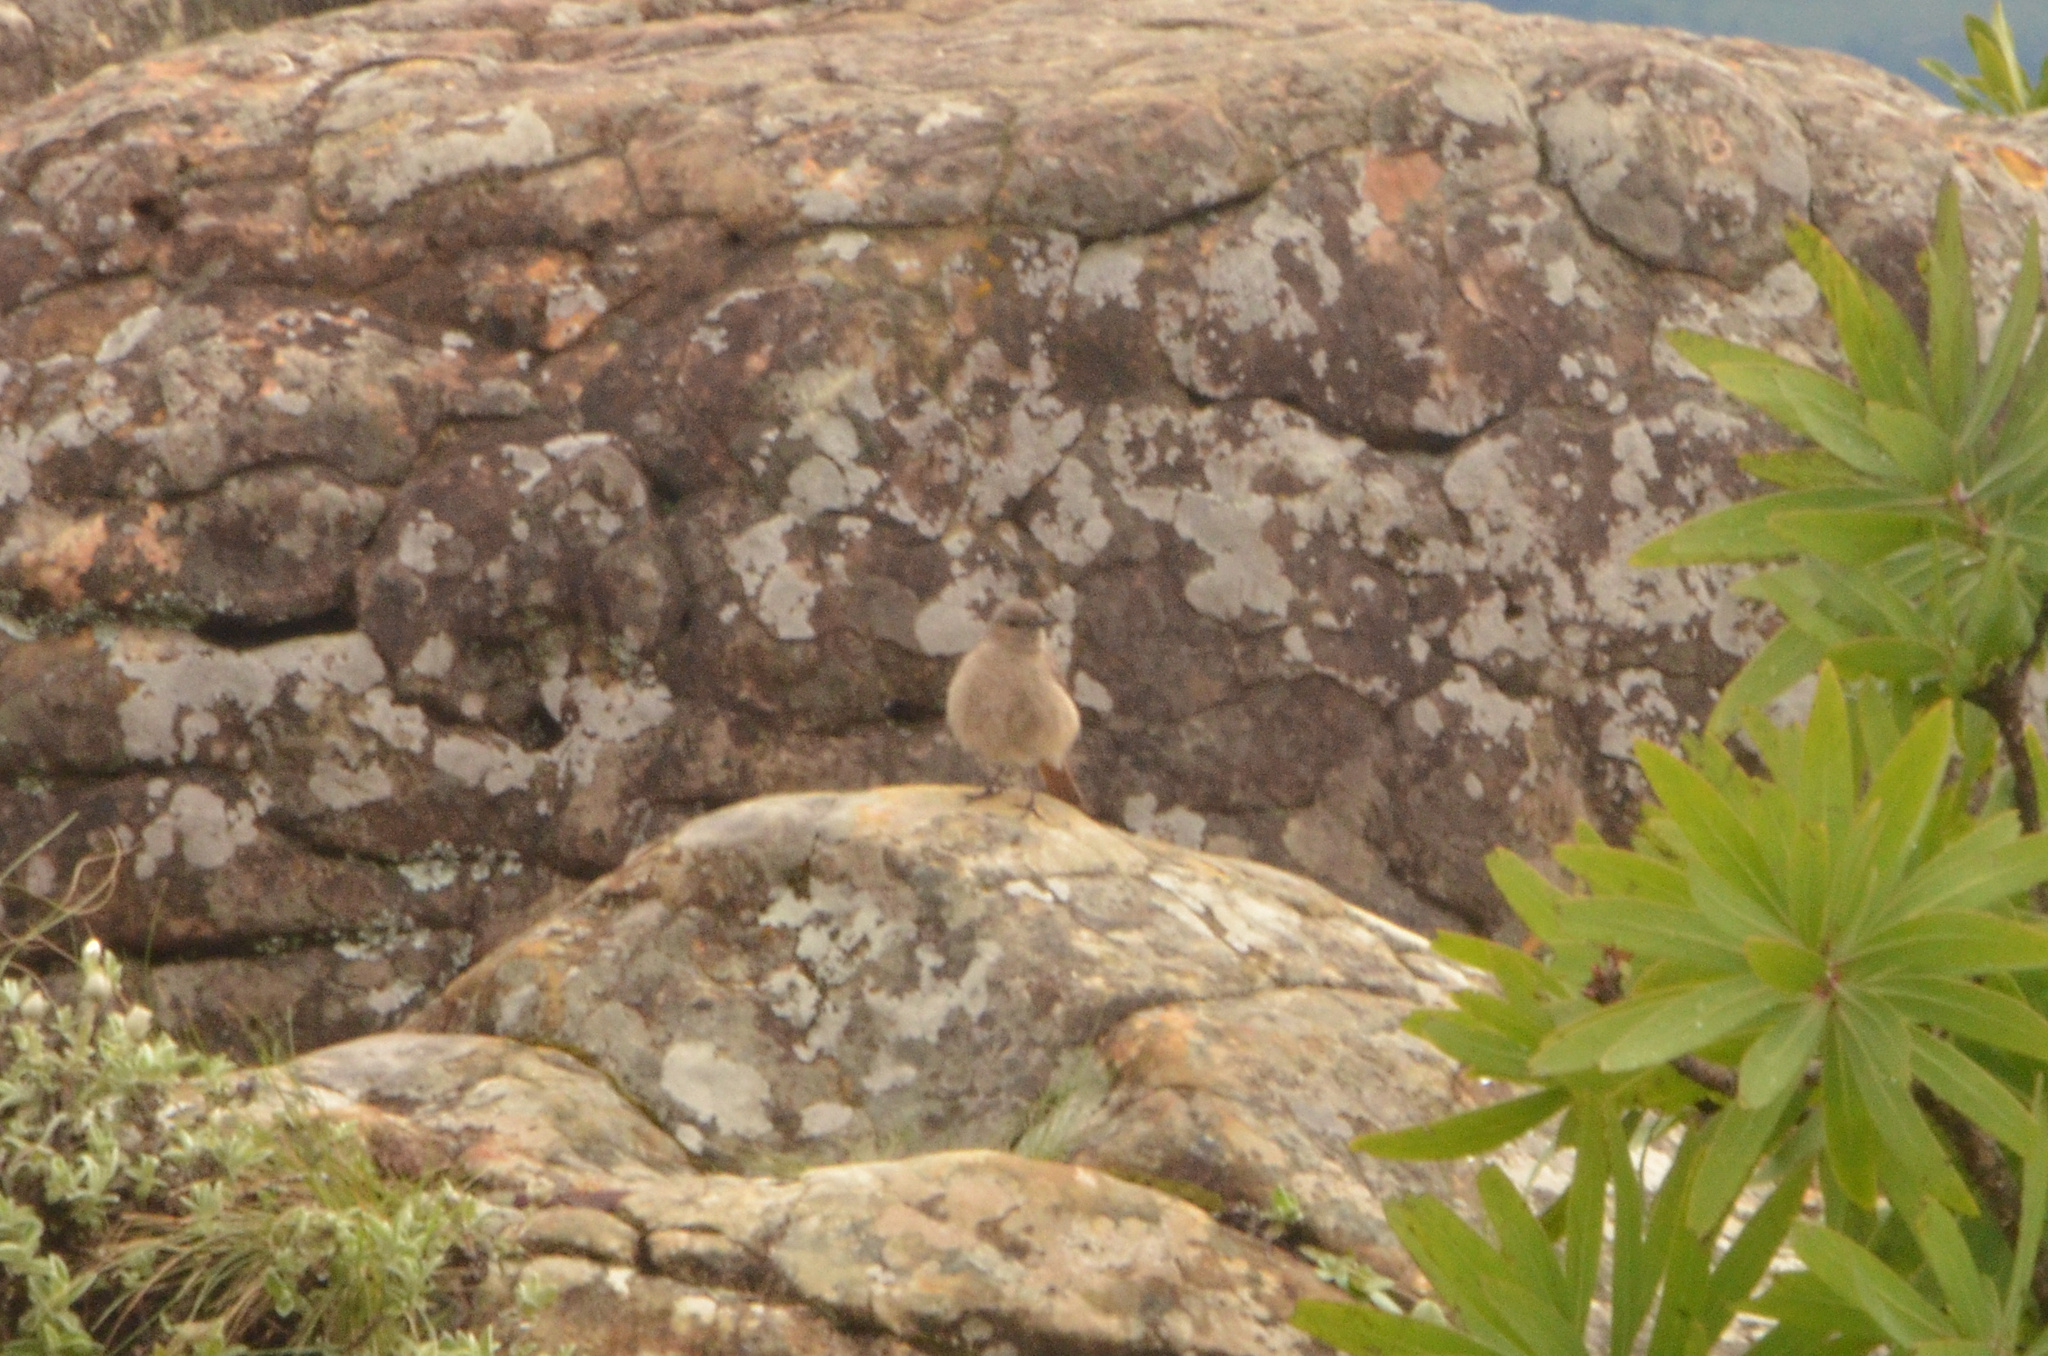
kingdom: Animalia
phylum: Chordata
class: Aves
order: Passeriformes
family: Muscicapidae
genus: Oenanthe
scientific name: Oenanthe familiaris
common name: Familiar chat
